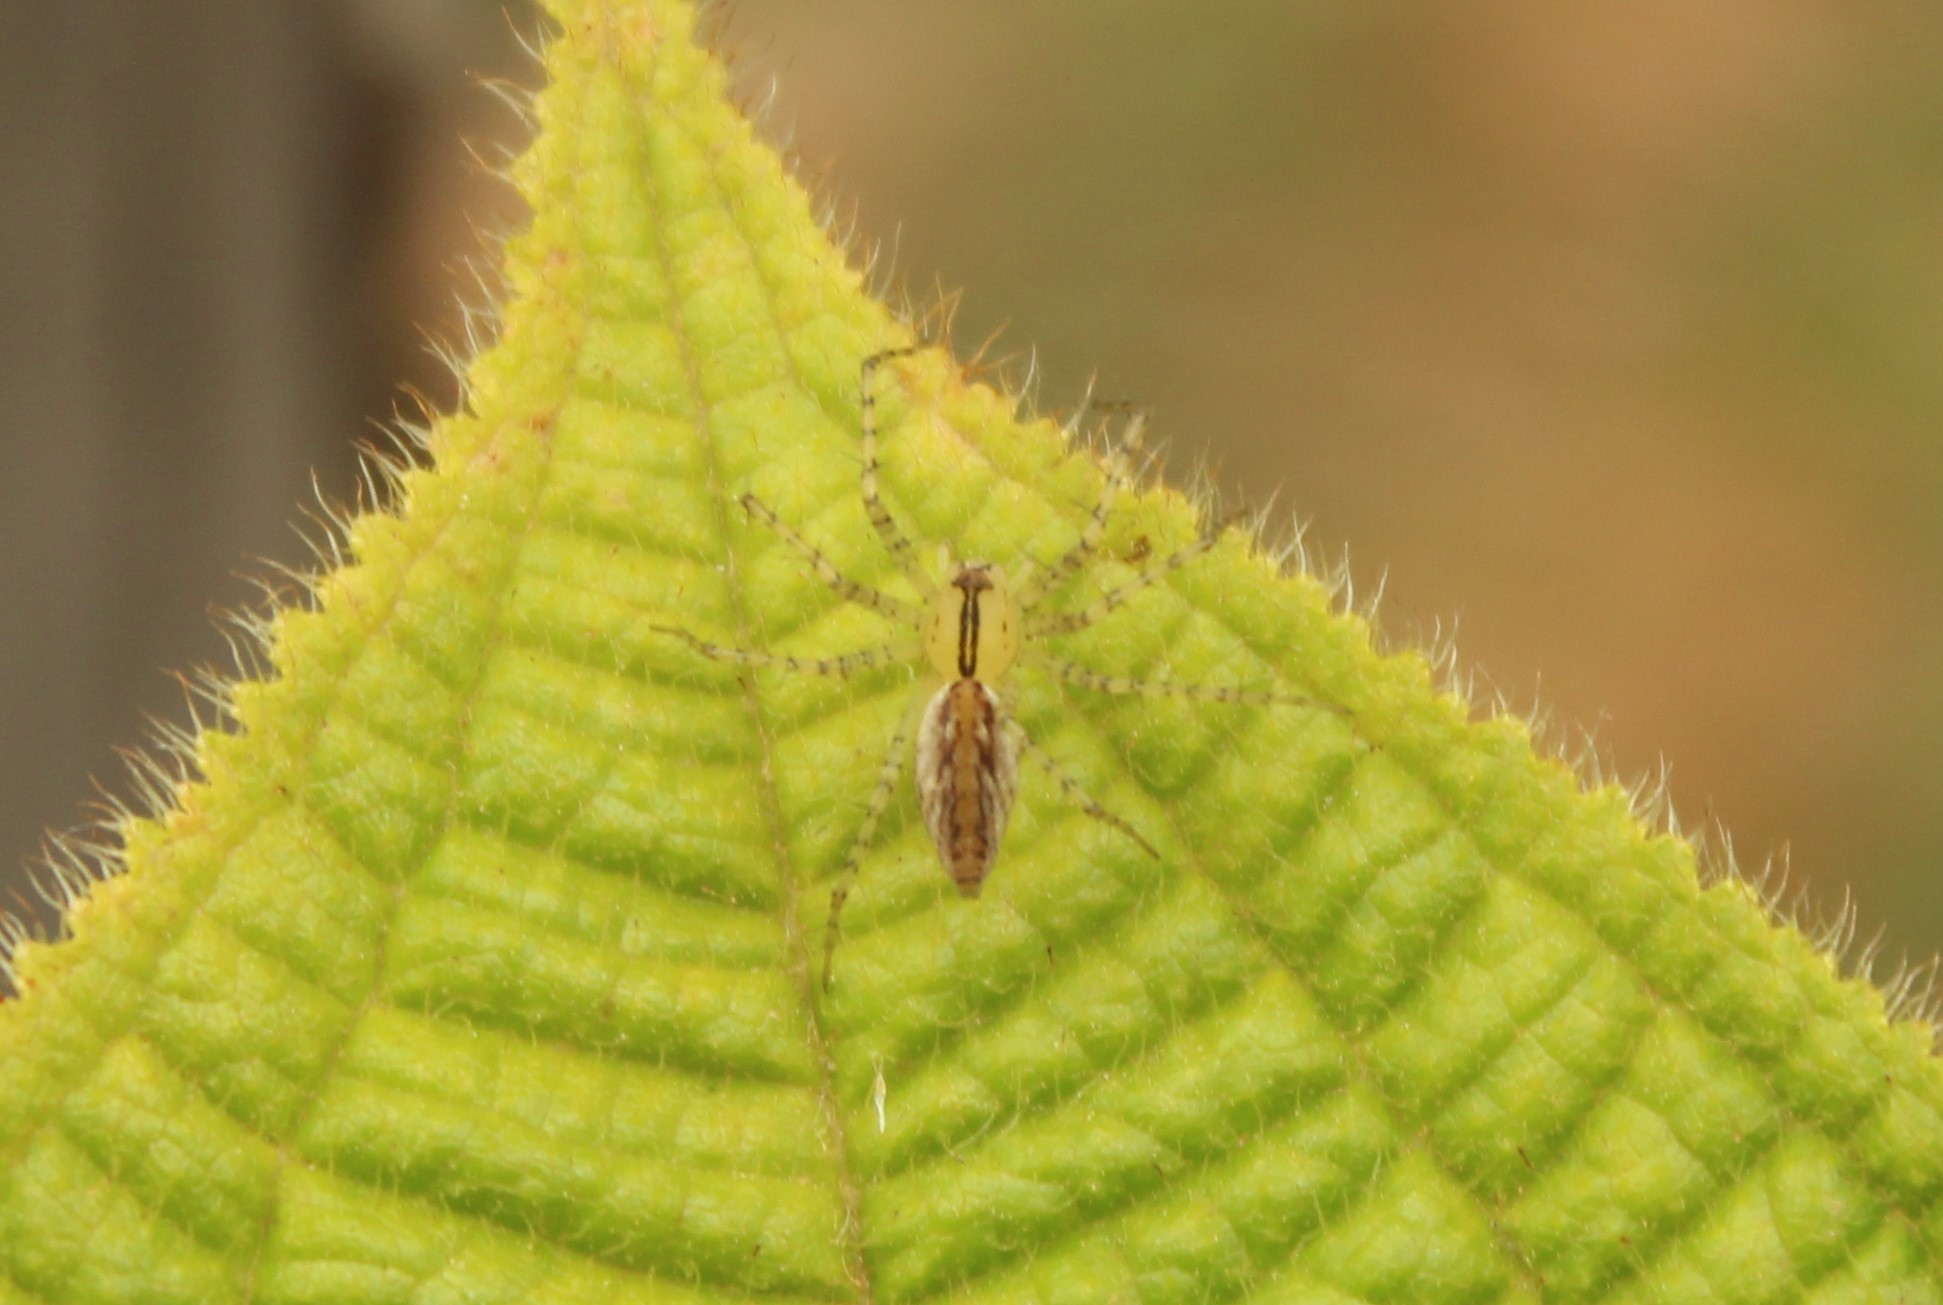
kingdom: Animalia
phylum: Arthropoda
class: Arachnida
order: Araneae
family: Oxyopidae
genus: Peucetia
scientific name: Peucetia rubrolineata
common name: Lynx spiders
